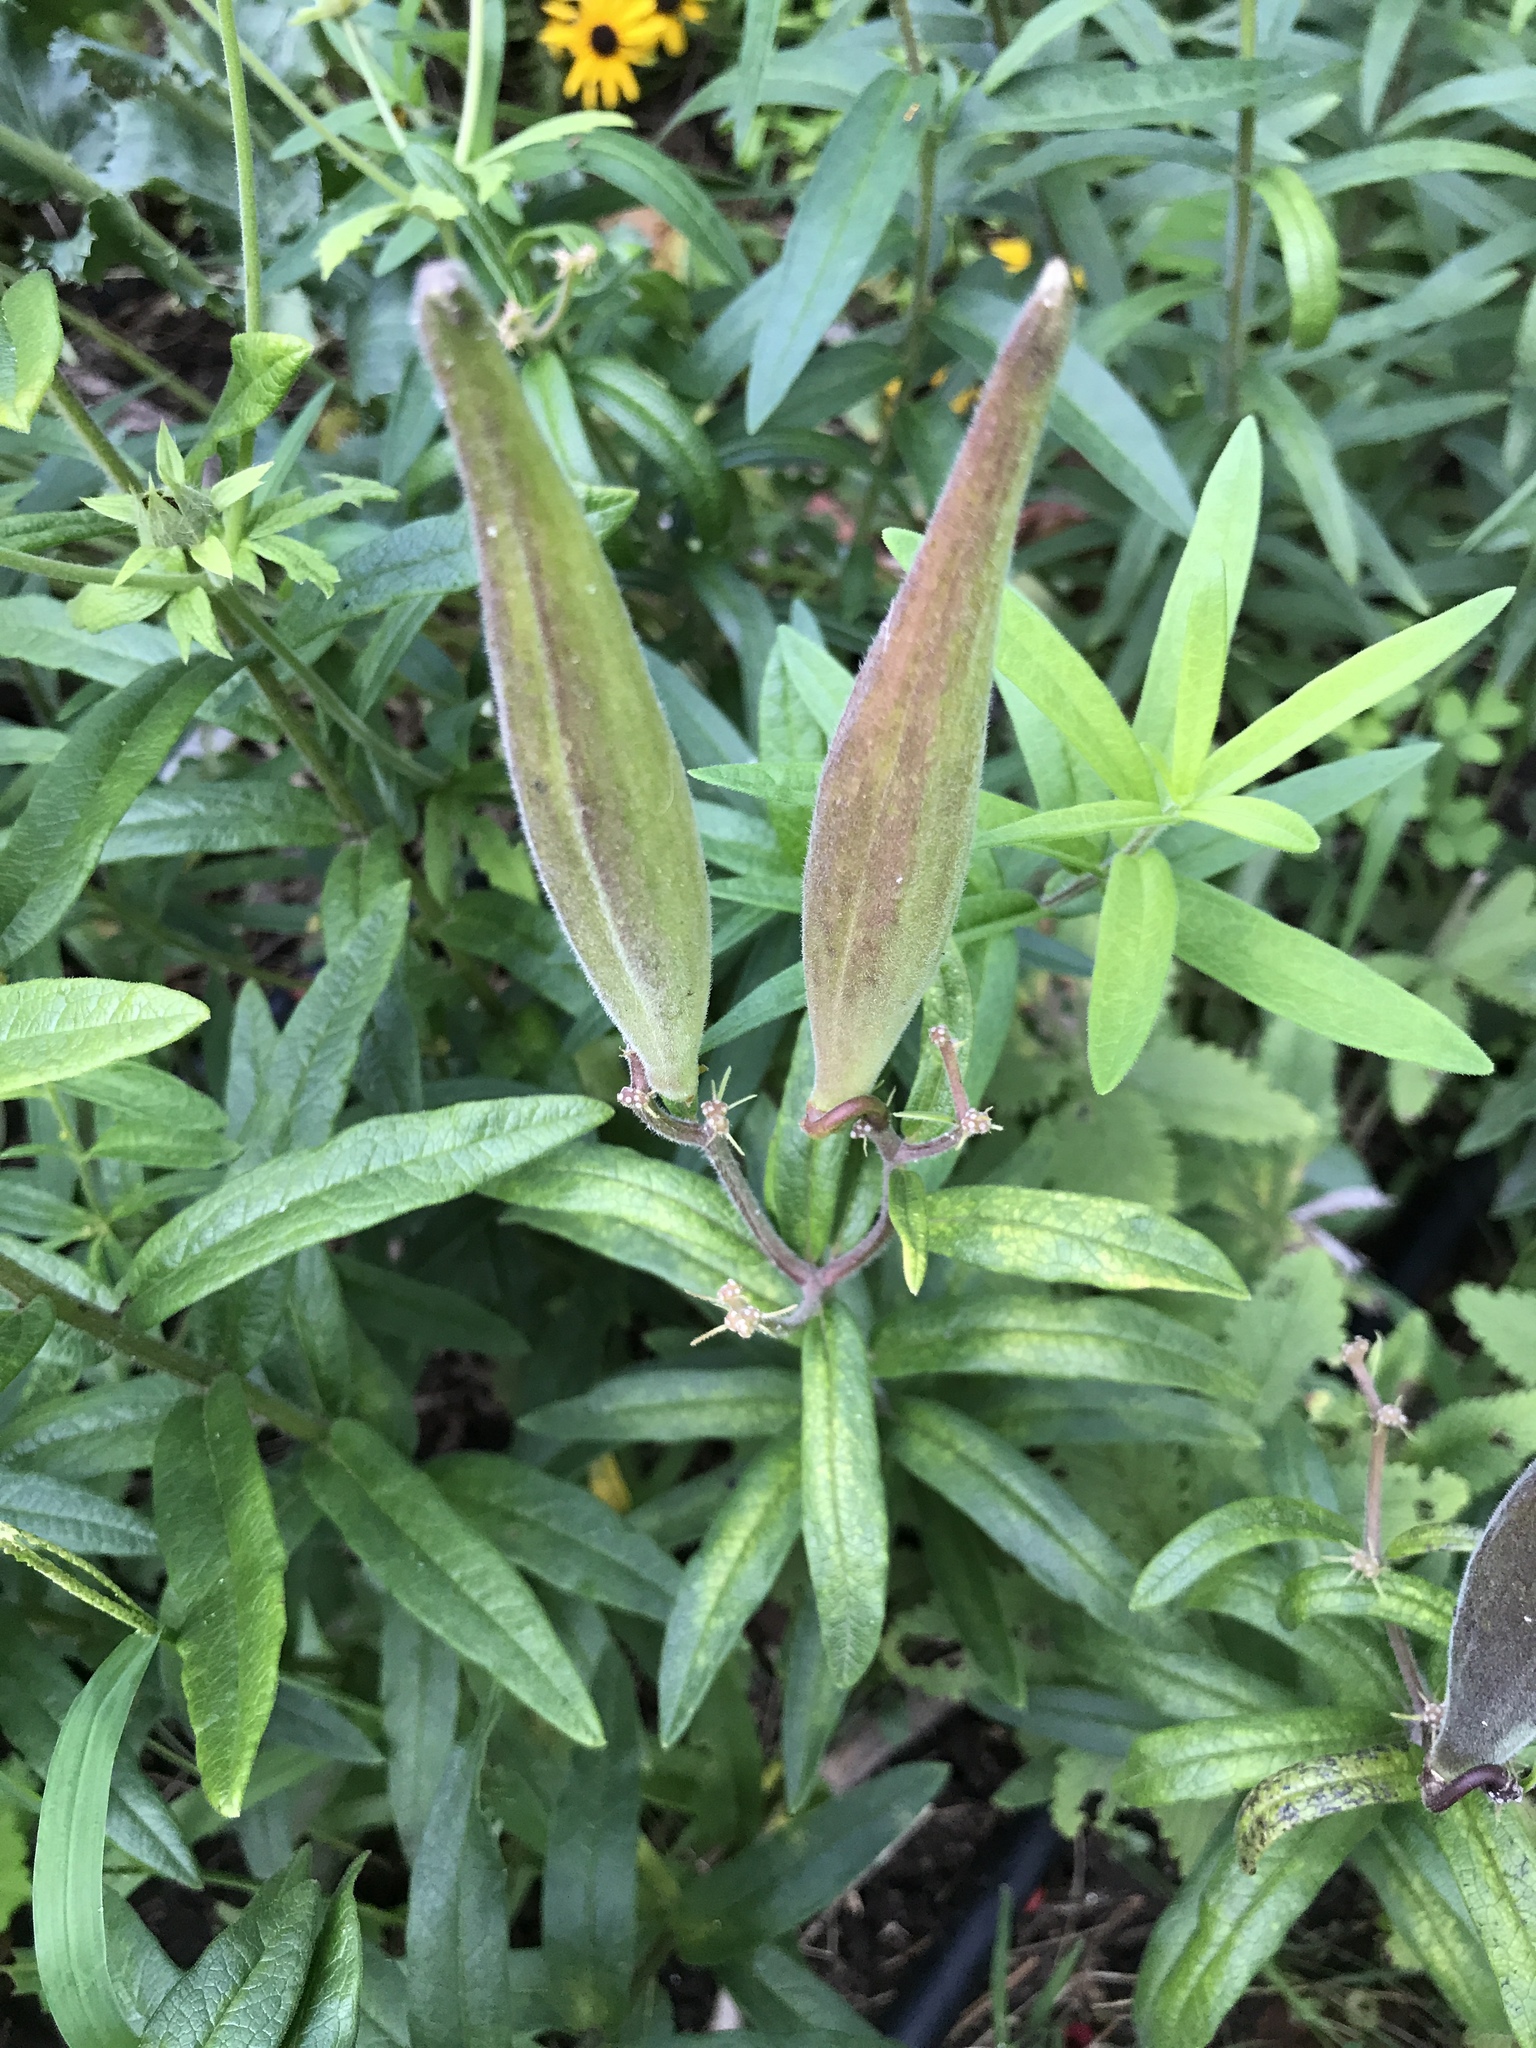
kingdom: Plantae
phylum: Tracheophyta
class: Magnoliopsida
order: Gentianales
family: Apocynaceae
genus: Asclepias
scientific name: Asclepias tuberosa
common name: Butterfly milkweed
